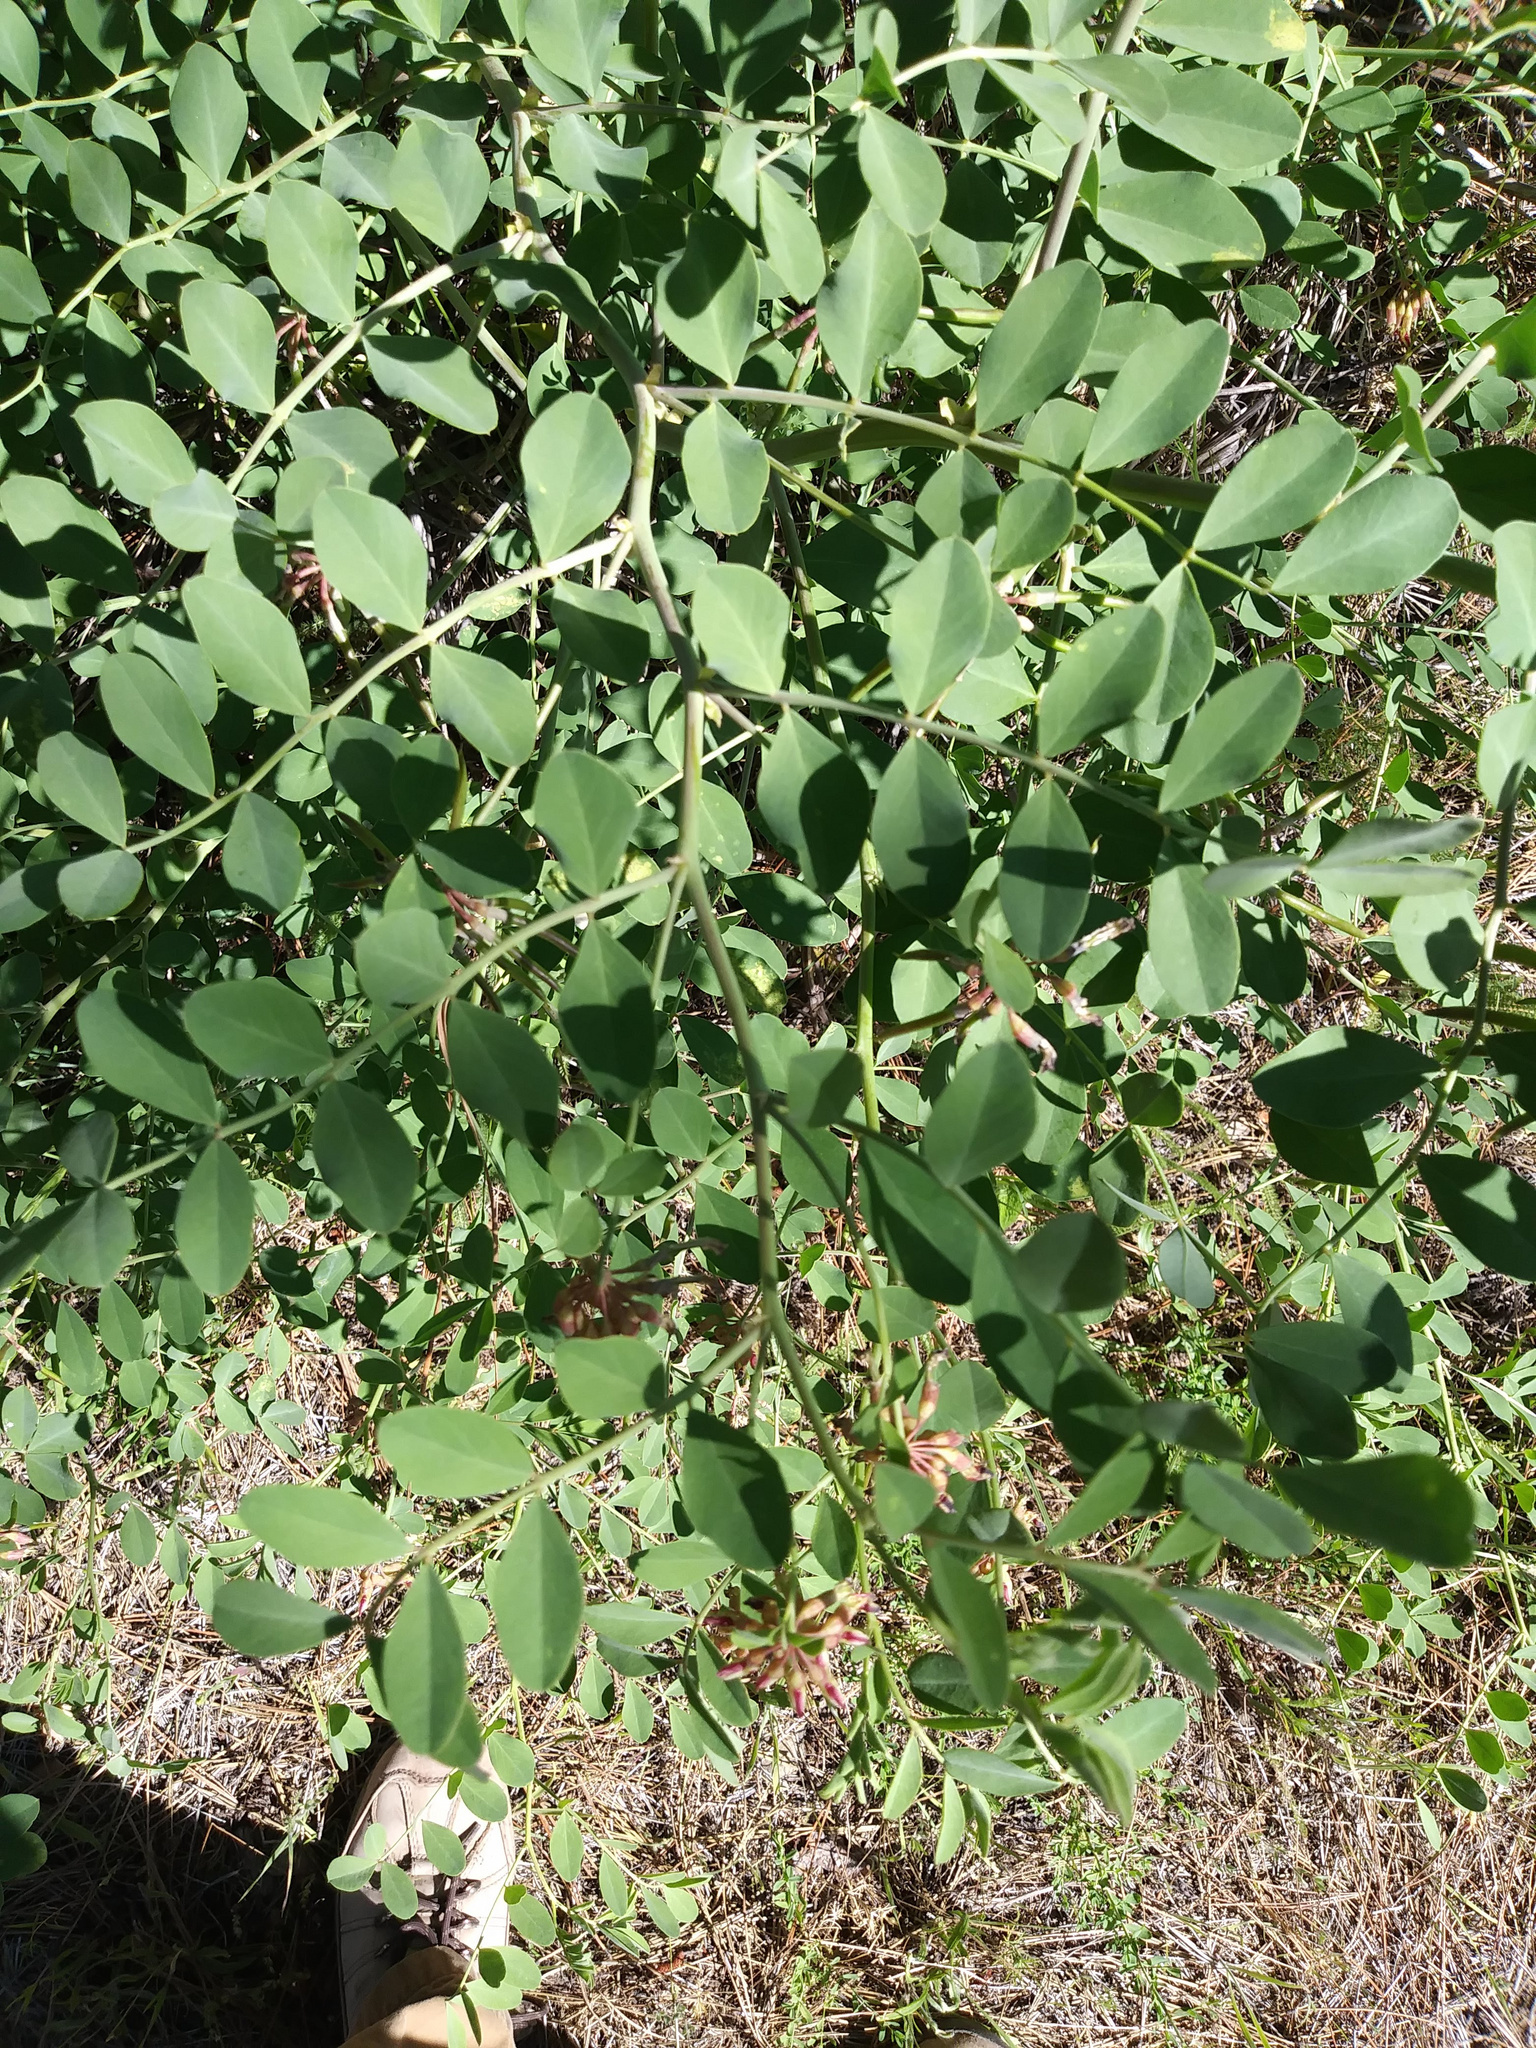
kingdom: Plantae
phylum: Tracheophyta
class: Magnoliopsida
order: Fabales
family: Fabaceae
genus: Hosackia
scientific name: Hosackia crassifolia
